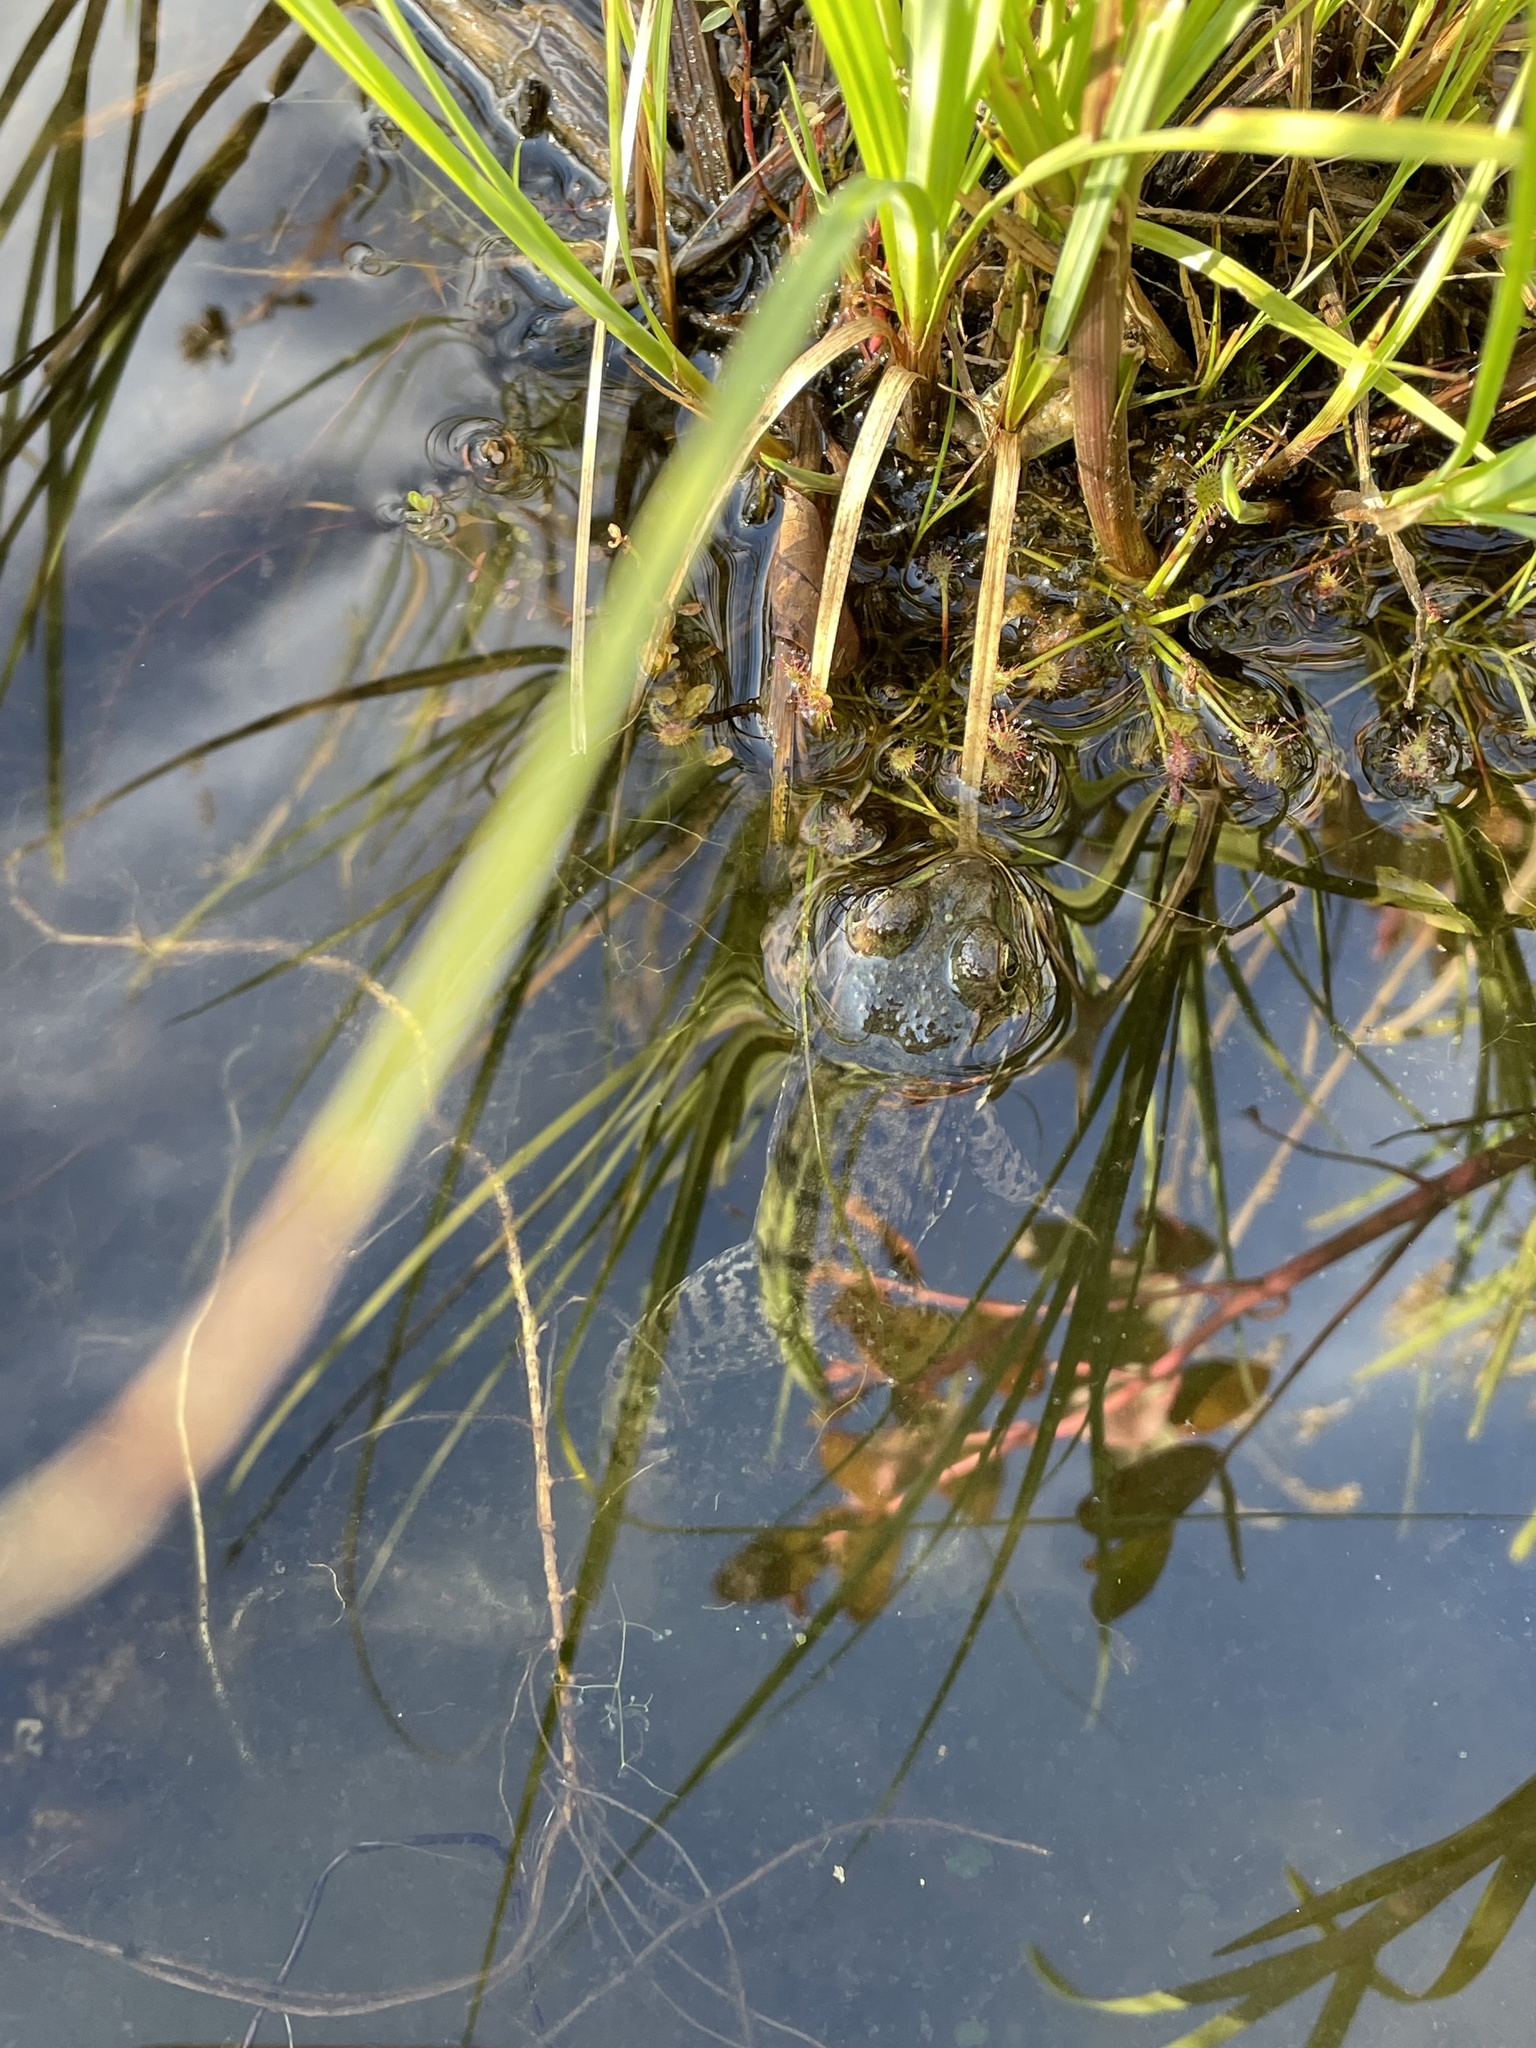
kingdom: Animalia
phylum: Chordata
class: Amphibia
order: Anura
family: Ranidae
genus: Lithobates
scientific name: Lithobates clamitans
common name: Green frog
